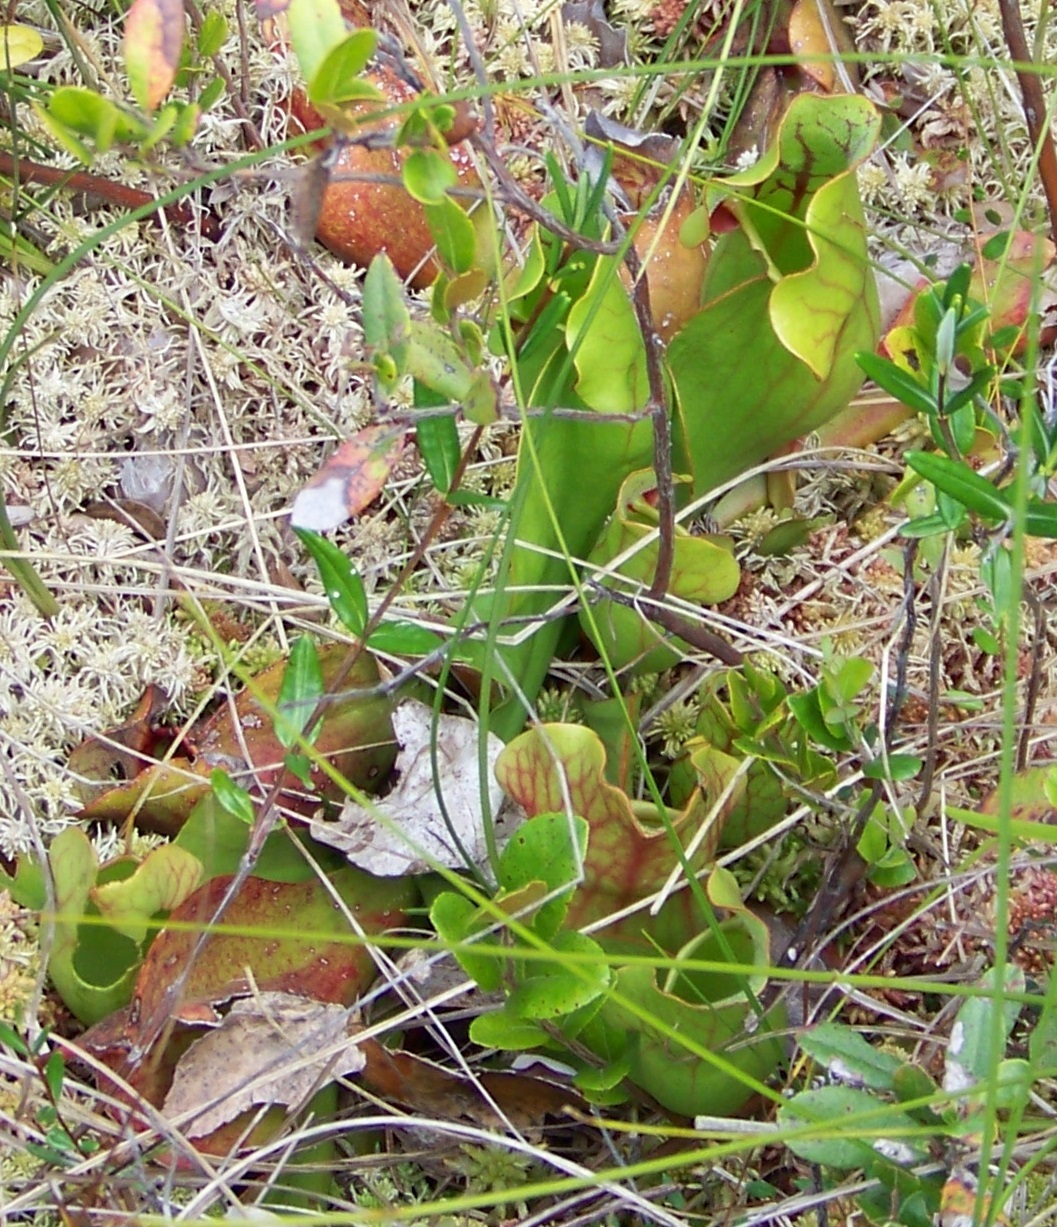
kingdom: Plantae
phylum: Tracheophyta
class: Magnoliopsida
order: Ericales
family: Sarraceniaceae
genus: Sarracenia
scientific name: Sarracenia purpurea
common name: Pitcherplant
